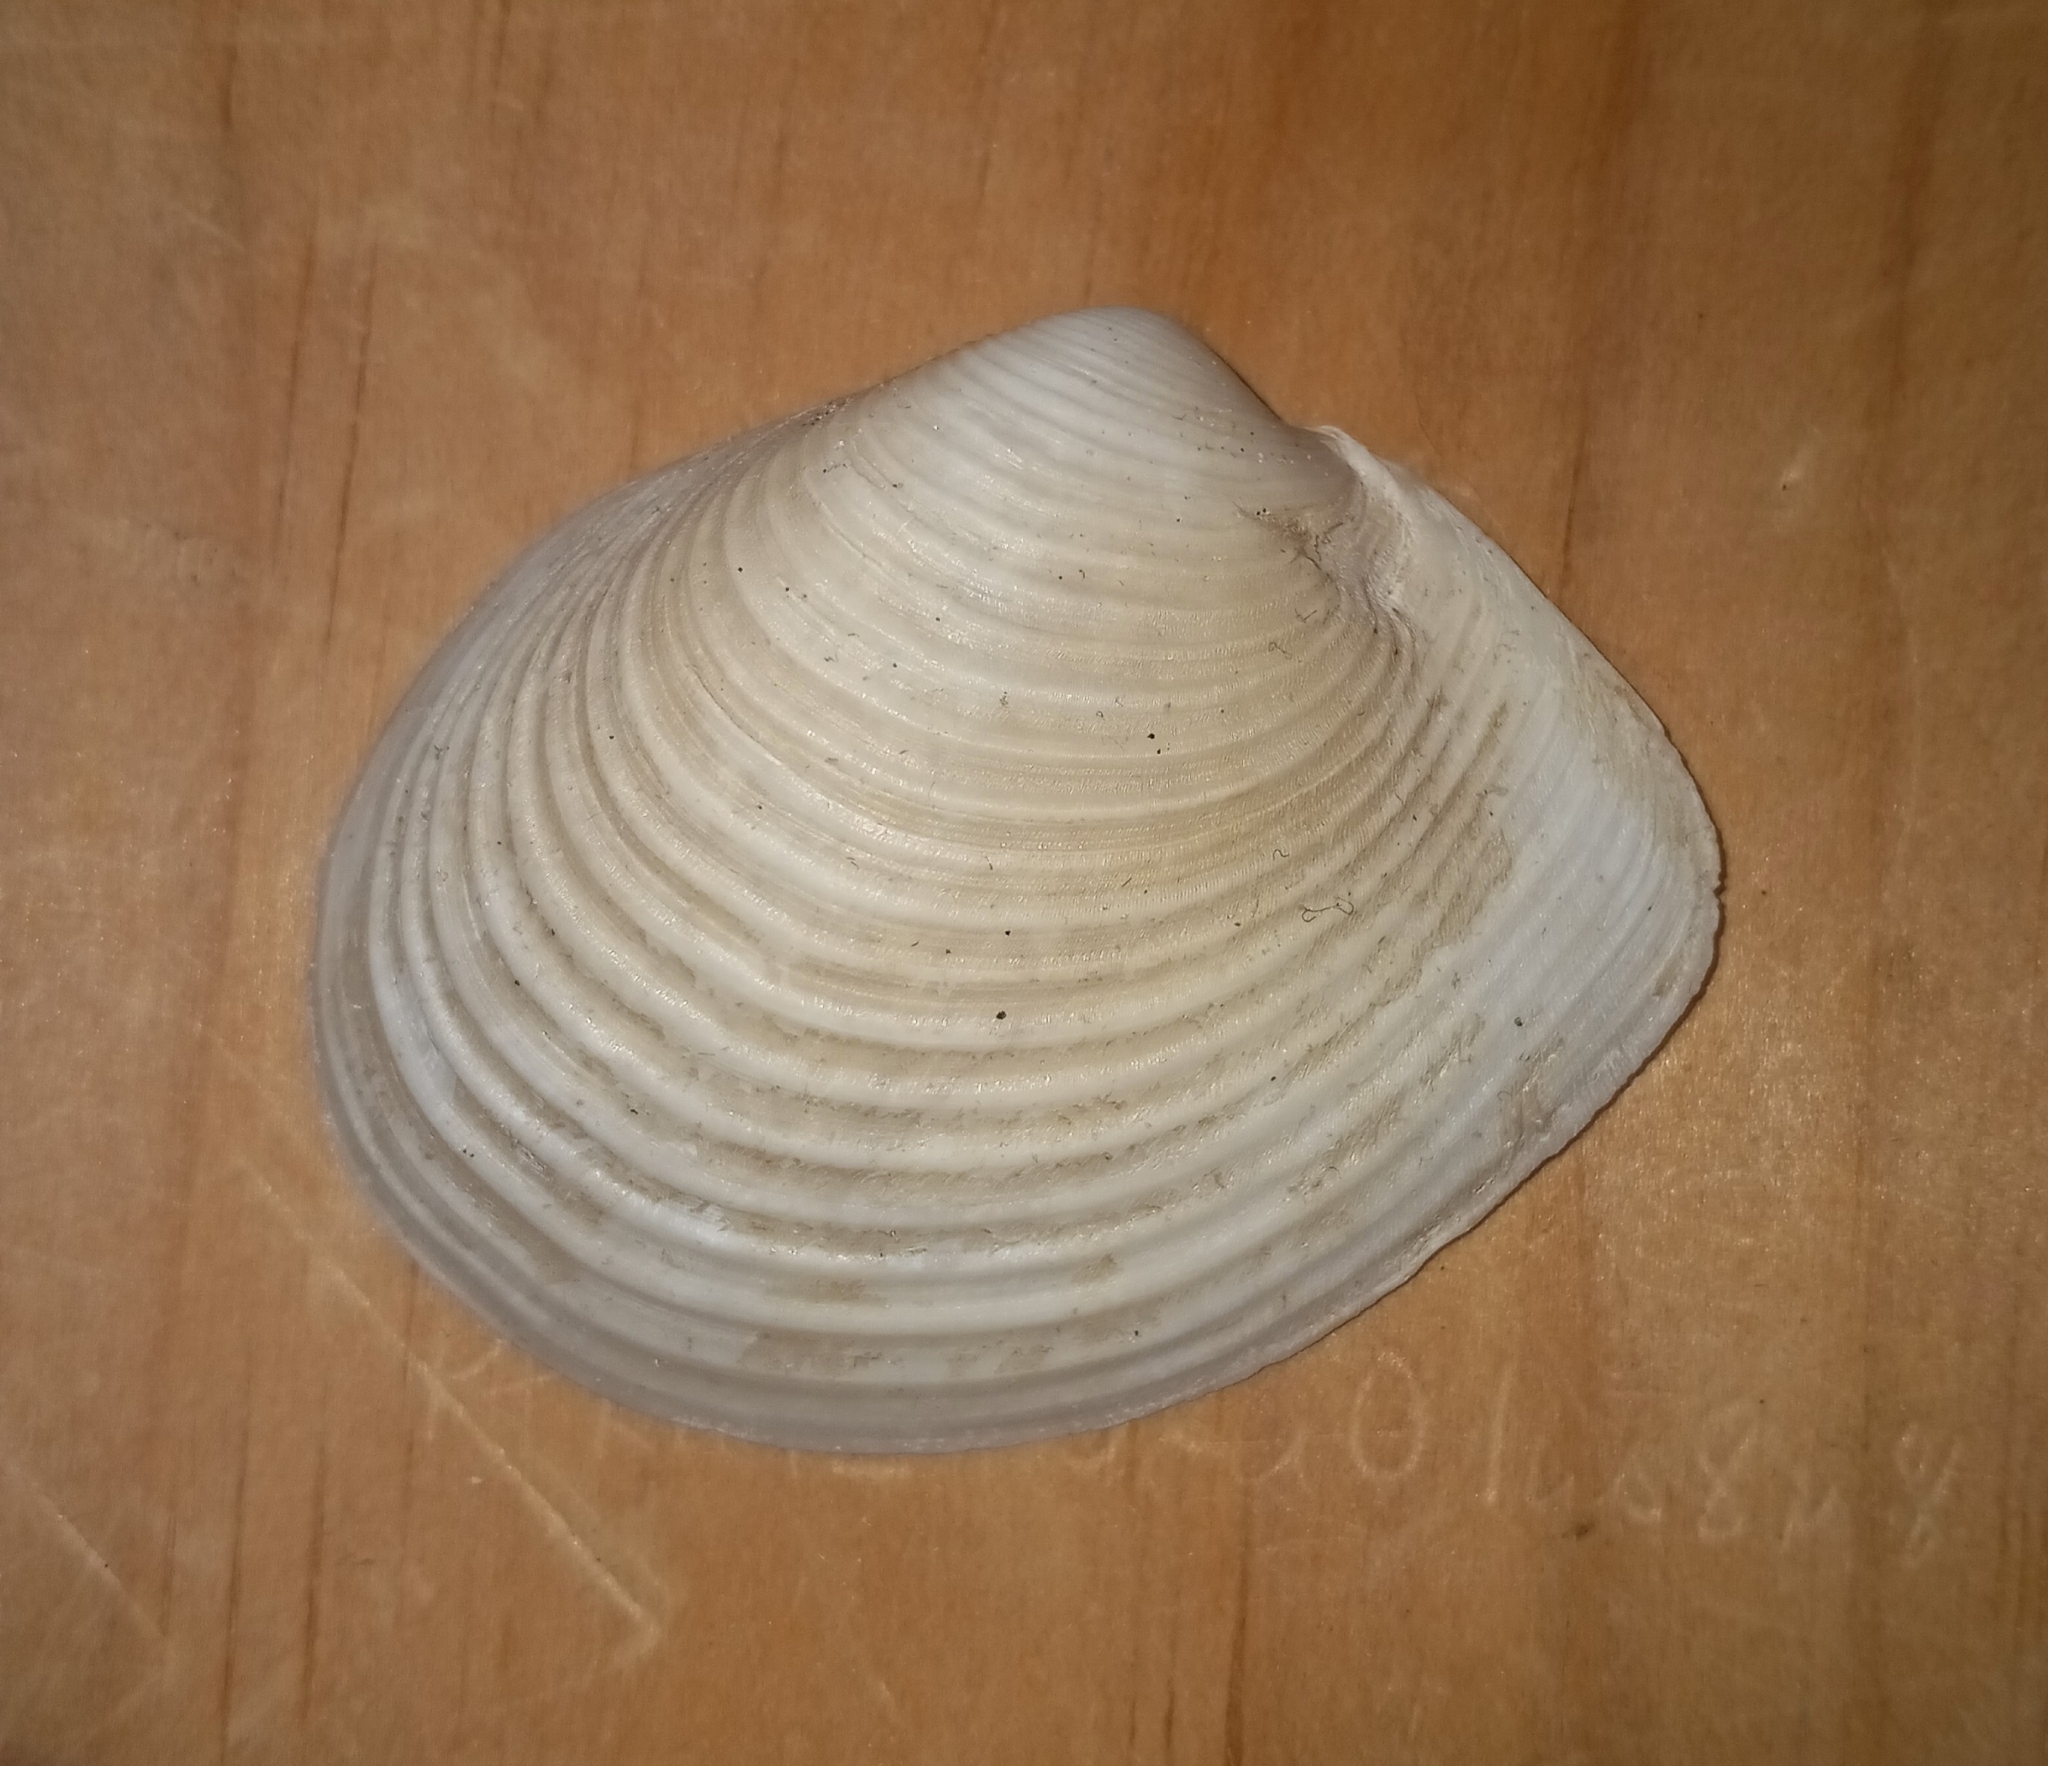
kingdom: Animalia
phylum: Mollusca
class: Bivalvia
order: Venerida
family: Anatinellidae
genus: Raeta
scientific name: Raeta plicatella
